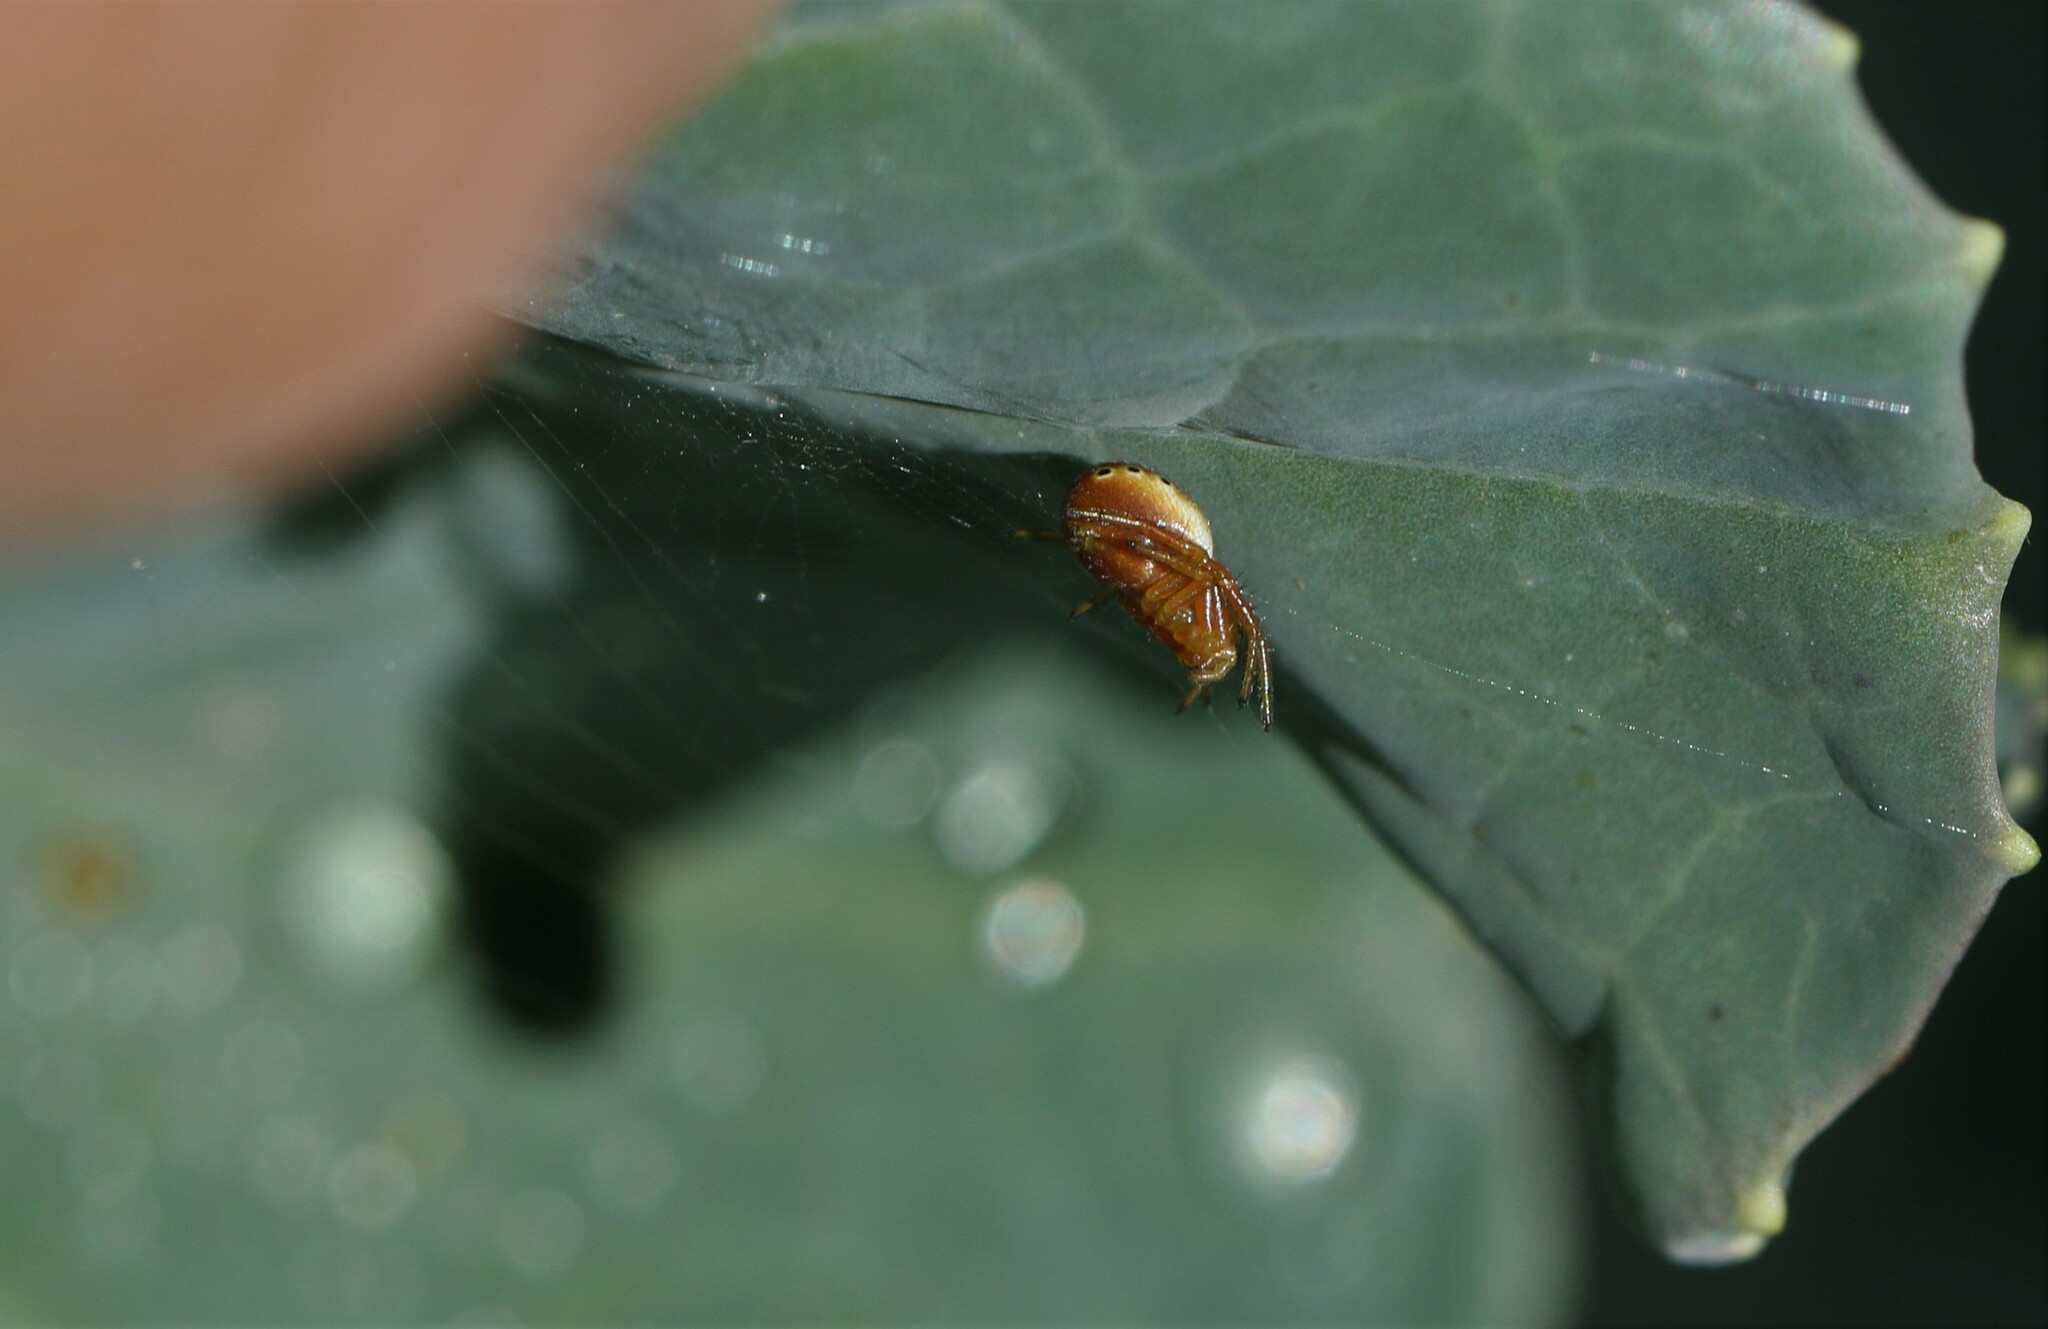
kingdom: Animalia
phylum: Arthropoda
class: Arachnida
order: Araneae
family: Araneidae
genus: Araniella
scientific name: Araniella displicata
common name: Sixspotted orb weaver
